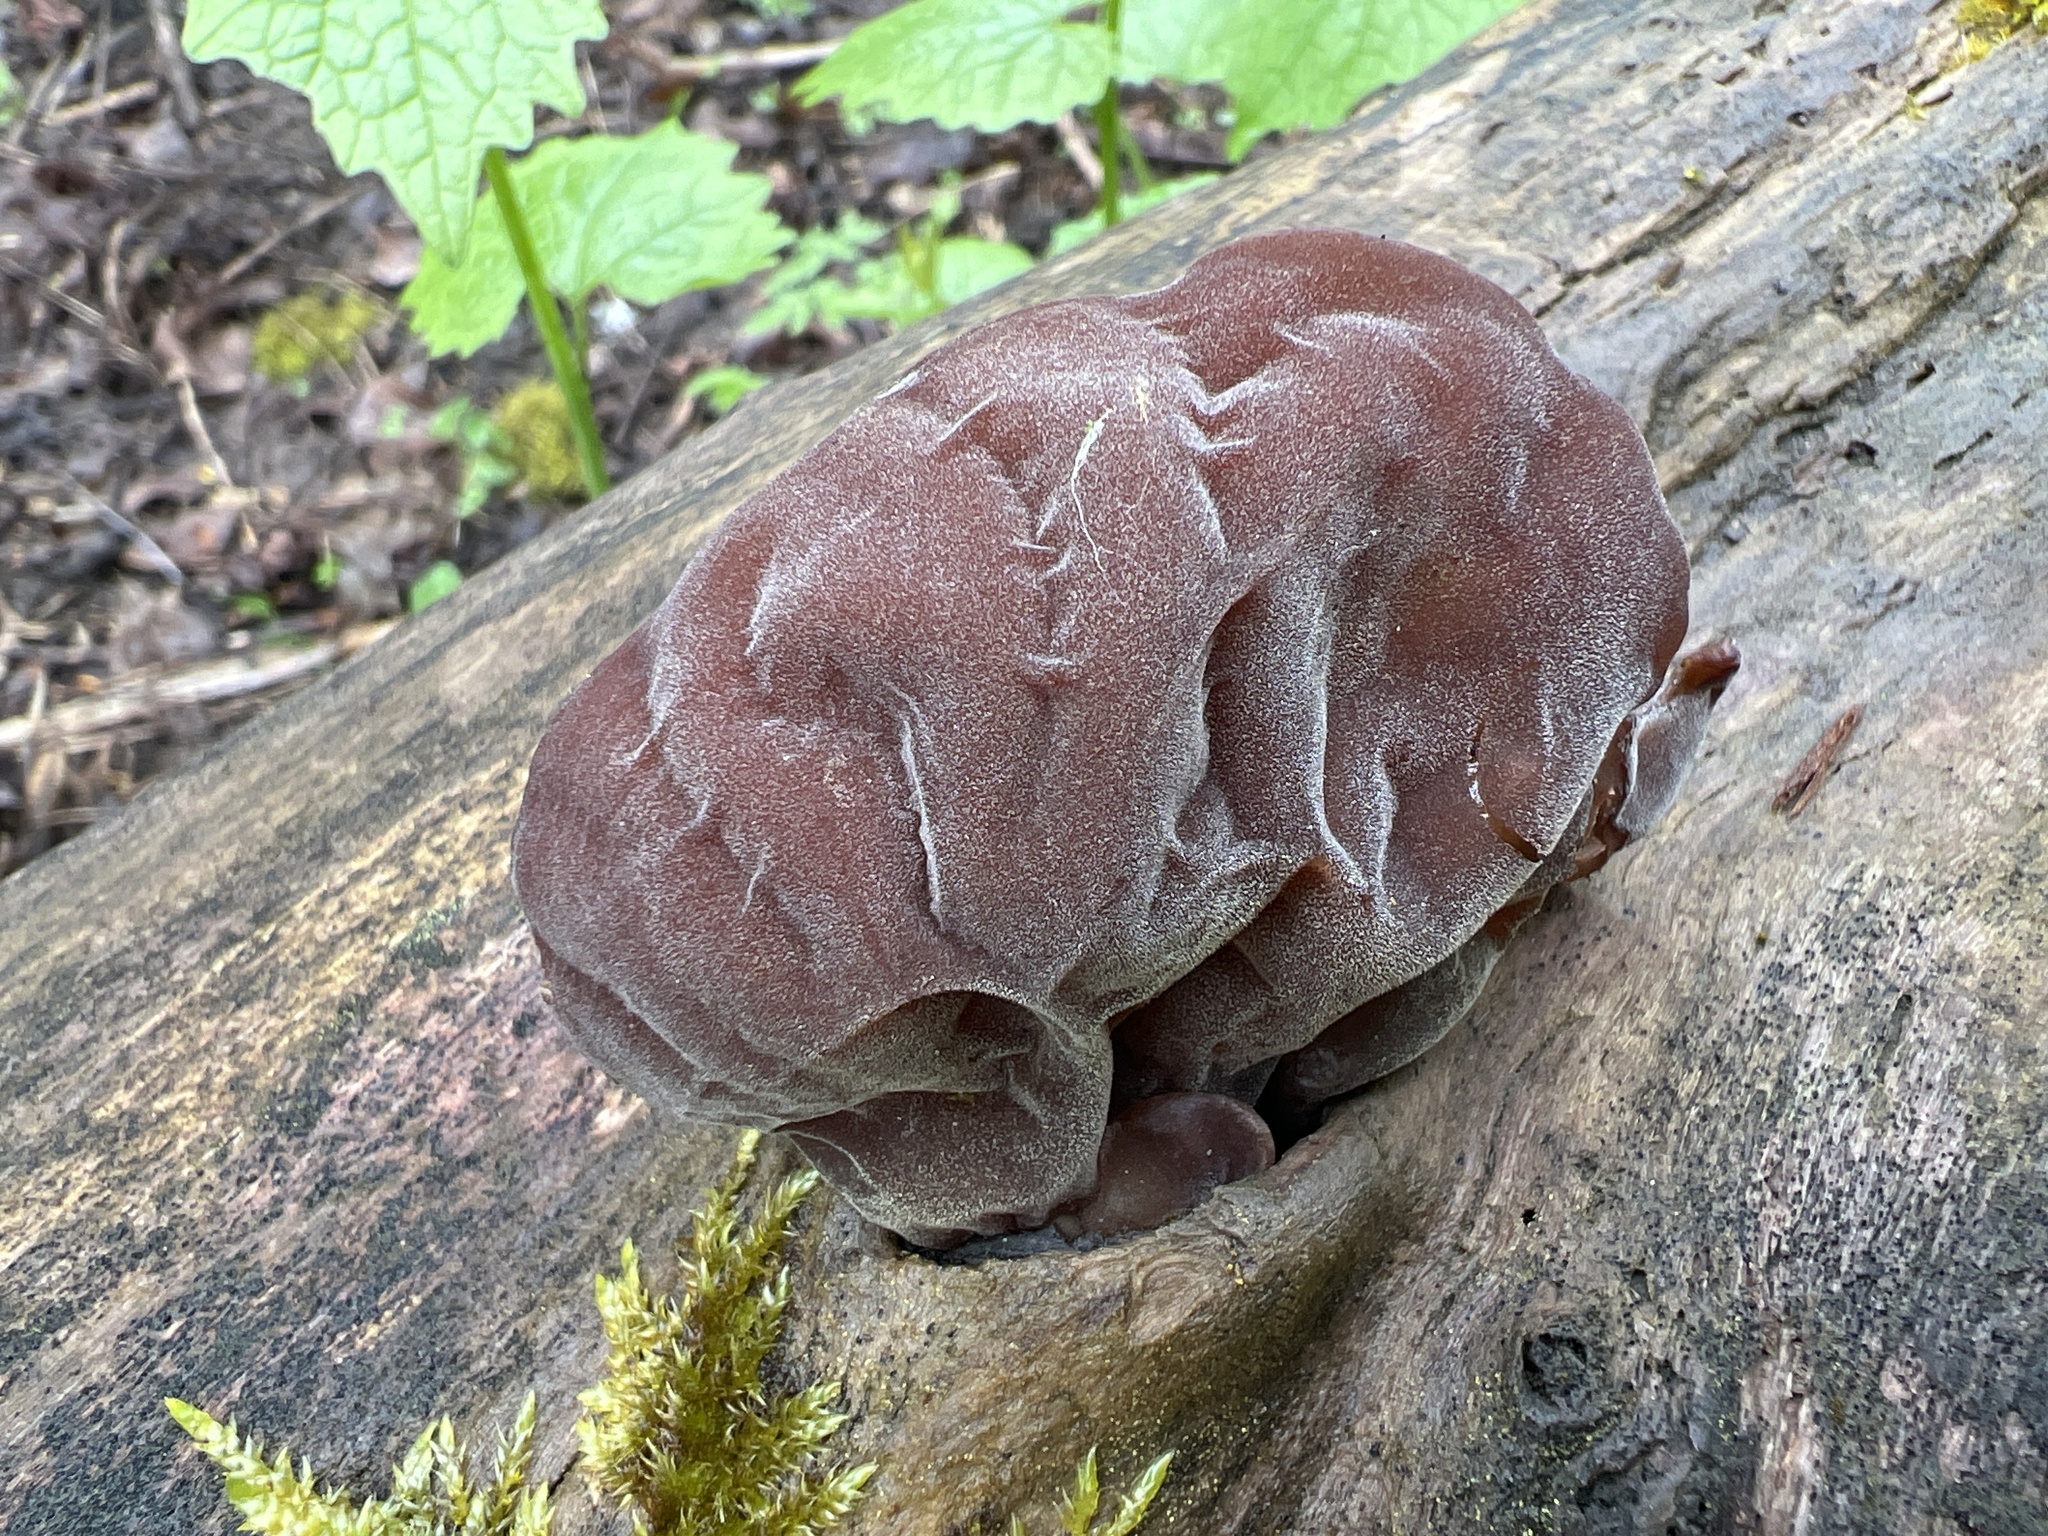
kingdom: Fungi
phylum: Basidiomycota
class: Agaricomycetes
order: Auriculariales
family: Auriculariaceae
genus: Auricularia
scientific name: Auricularia auricula-judae
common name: Jelly ear
